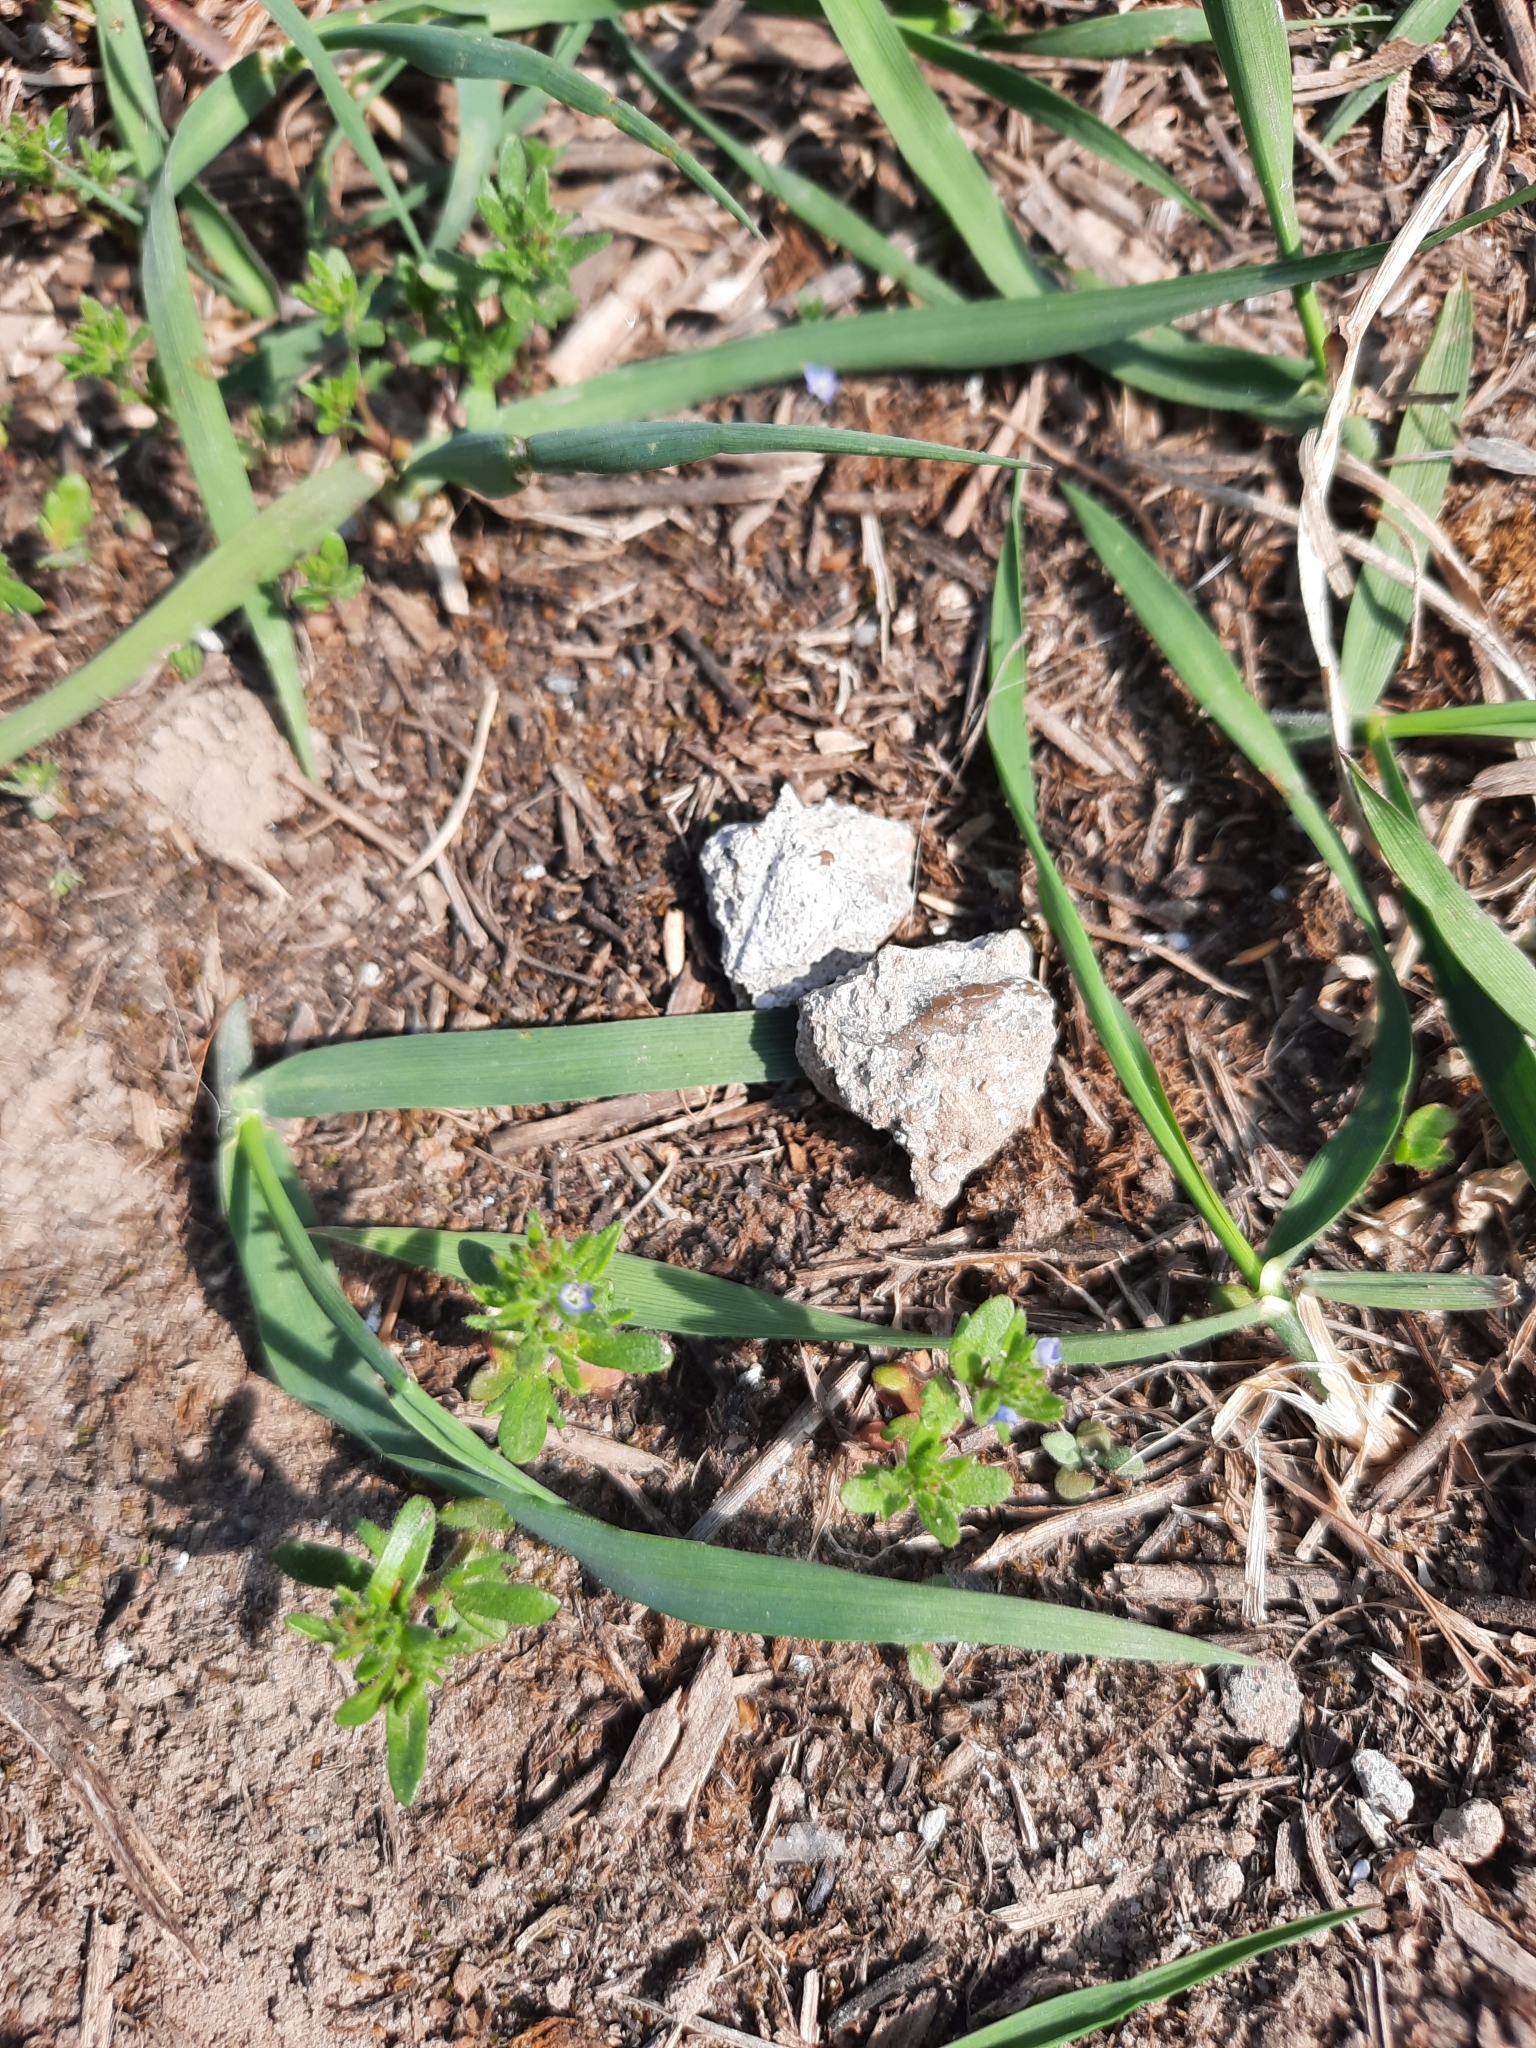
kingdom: Plantae
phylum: Tracheophyta
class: Magnoliopsida
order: Lamiales
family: Plantaginaceae
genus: Veronica
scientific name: Veronica verna
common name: Spring speedwell
